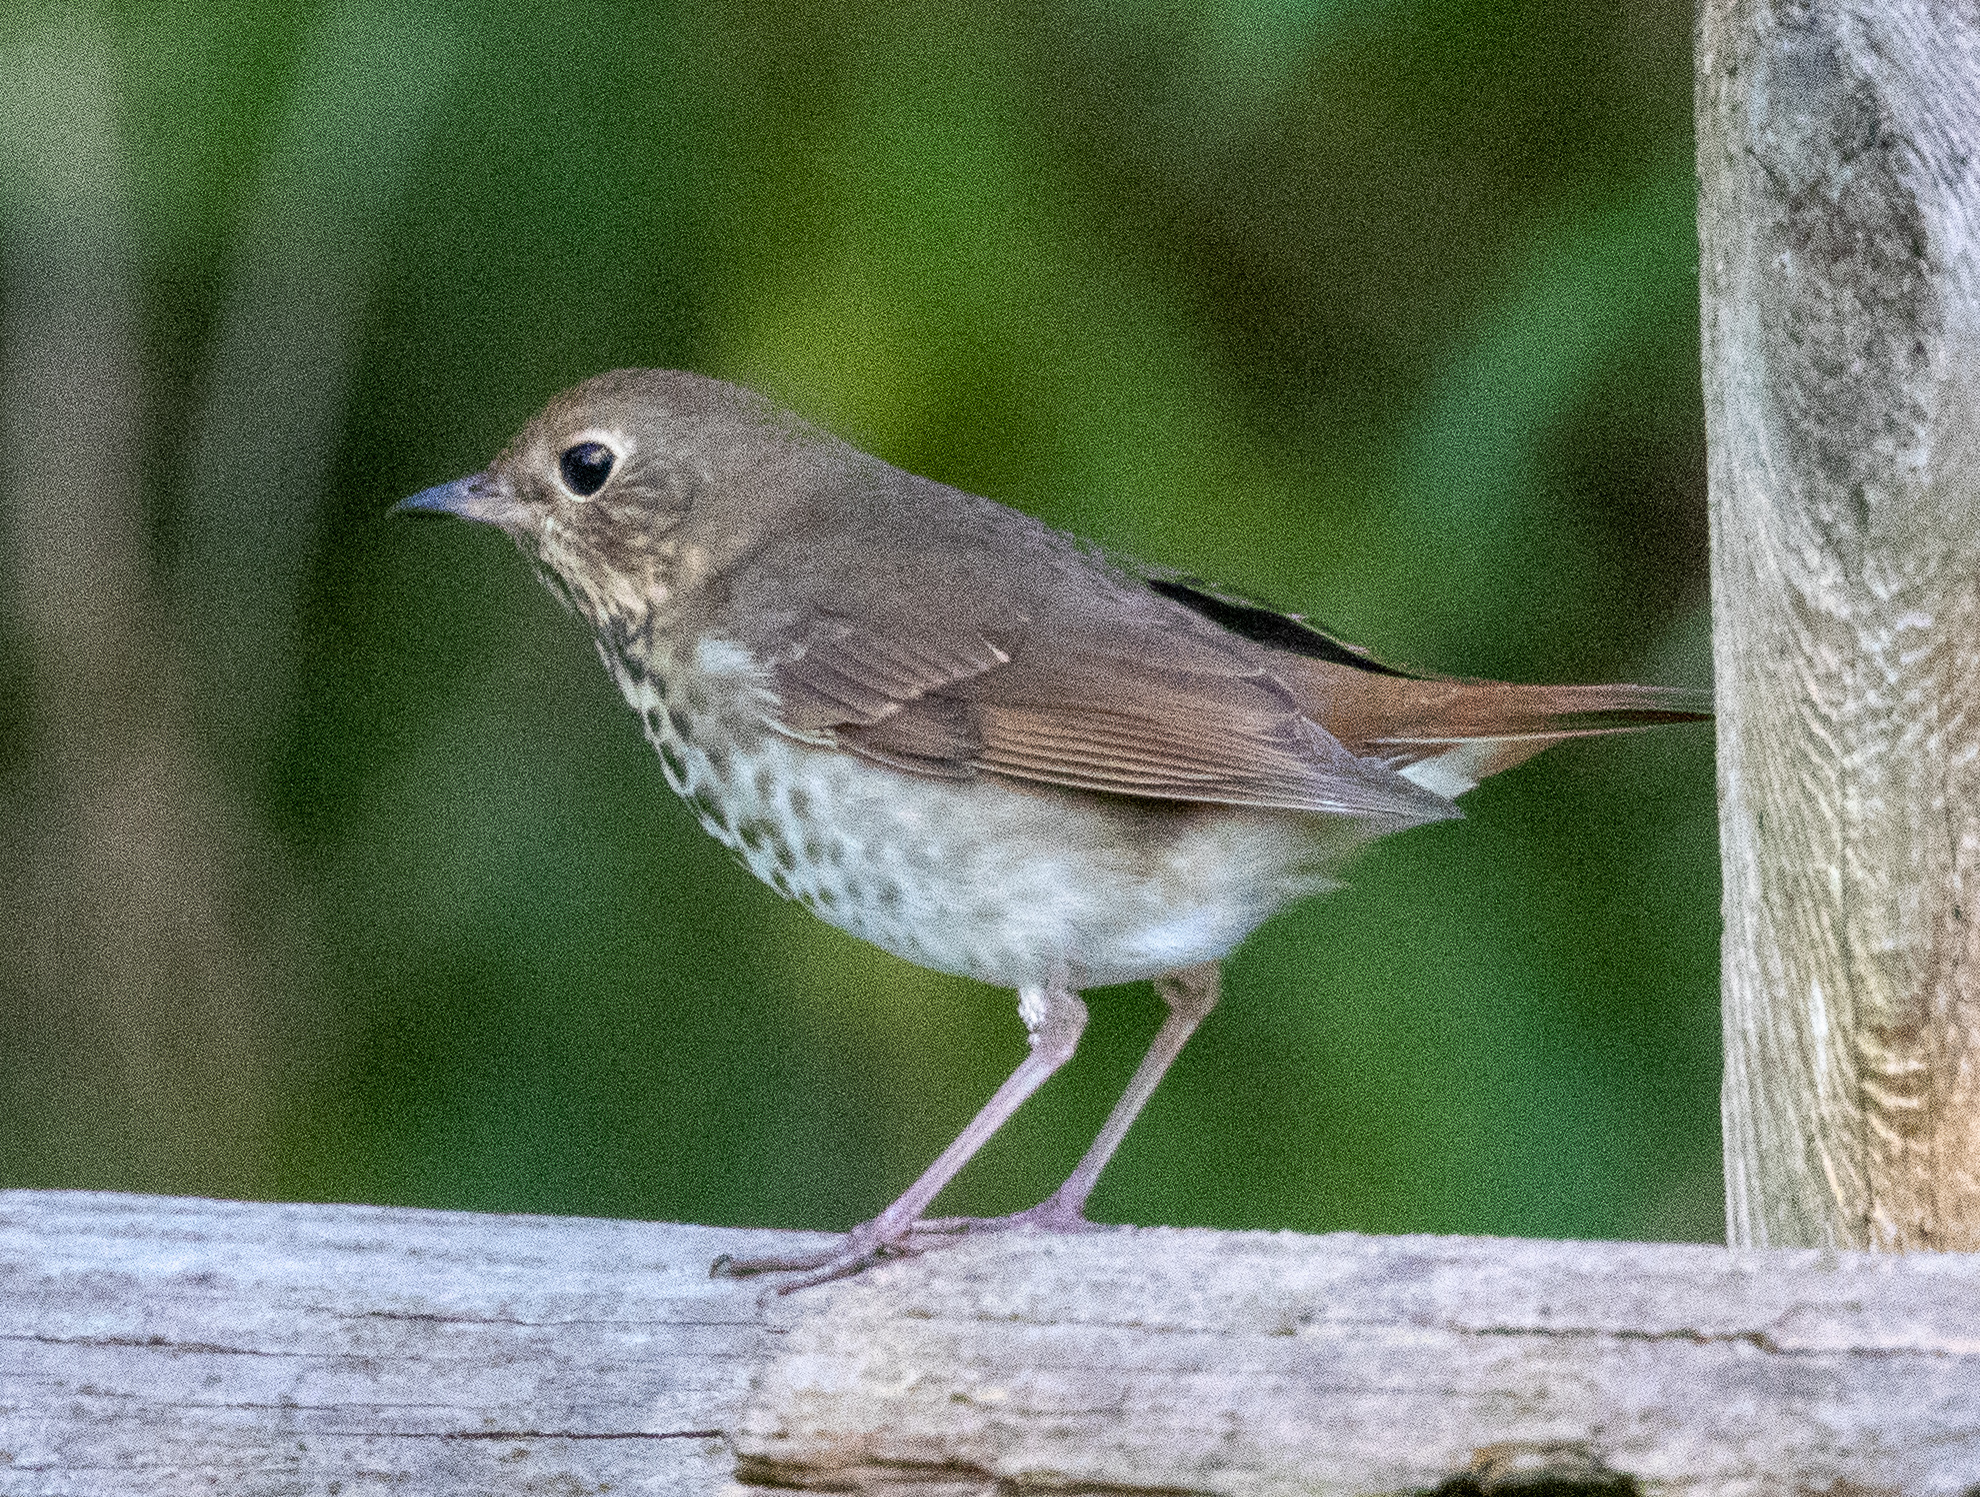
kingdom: Animalia
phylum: Chordata
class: Aves
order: Passeriformes
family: Turdidae
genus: Catharus
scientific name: Catharus guttatus
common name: Hermit thrush
